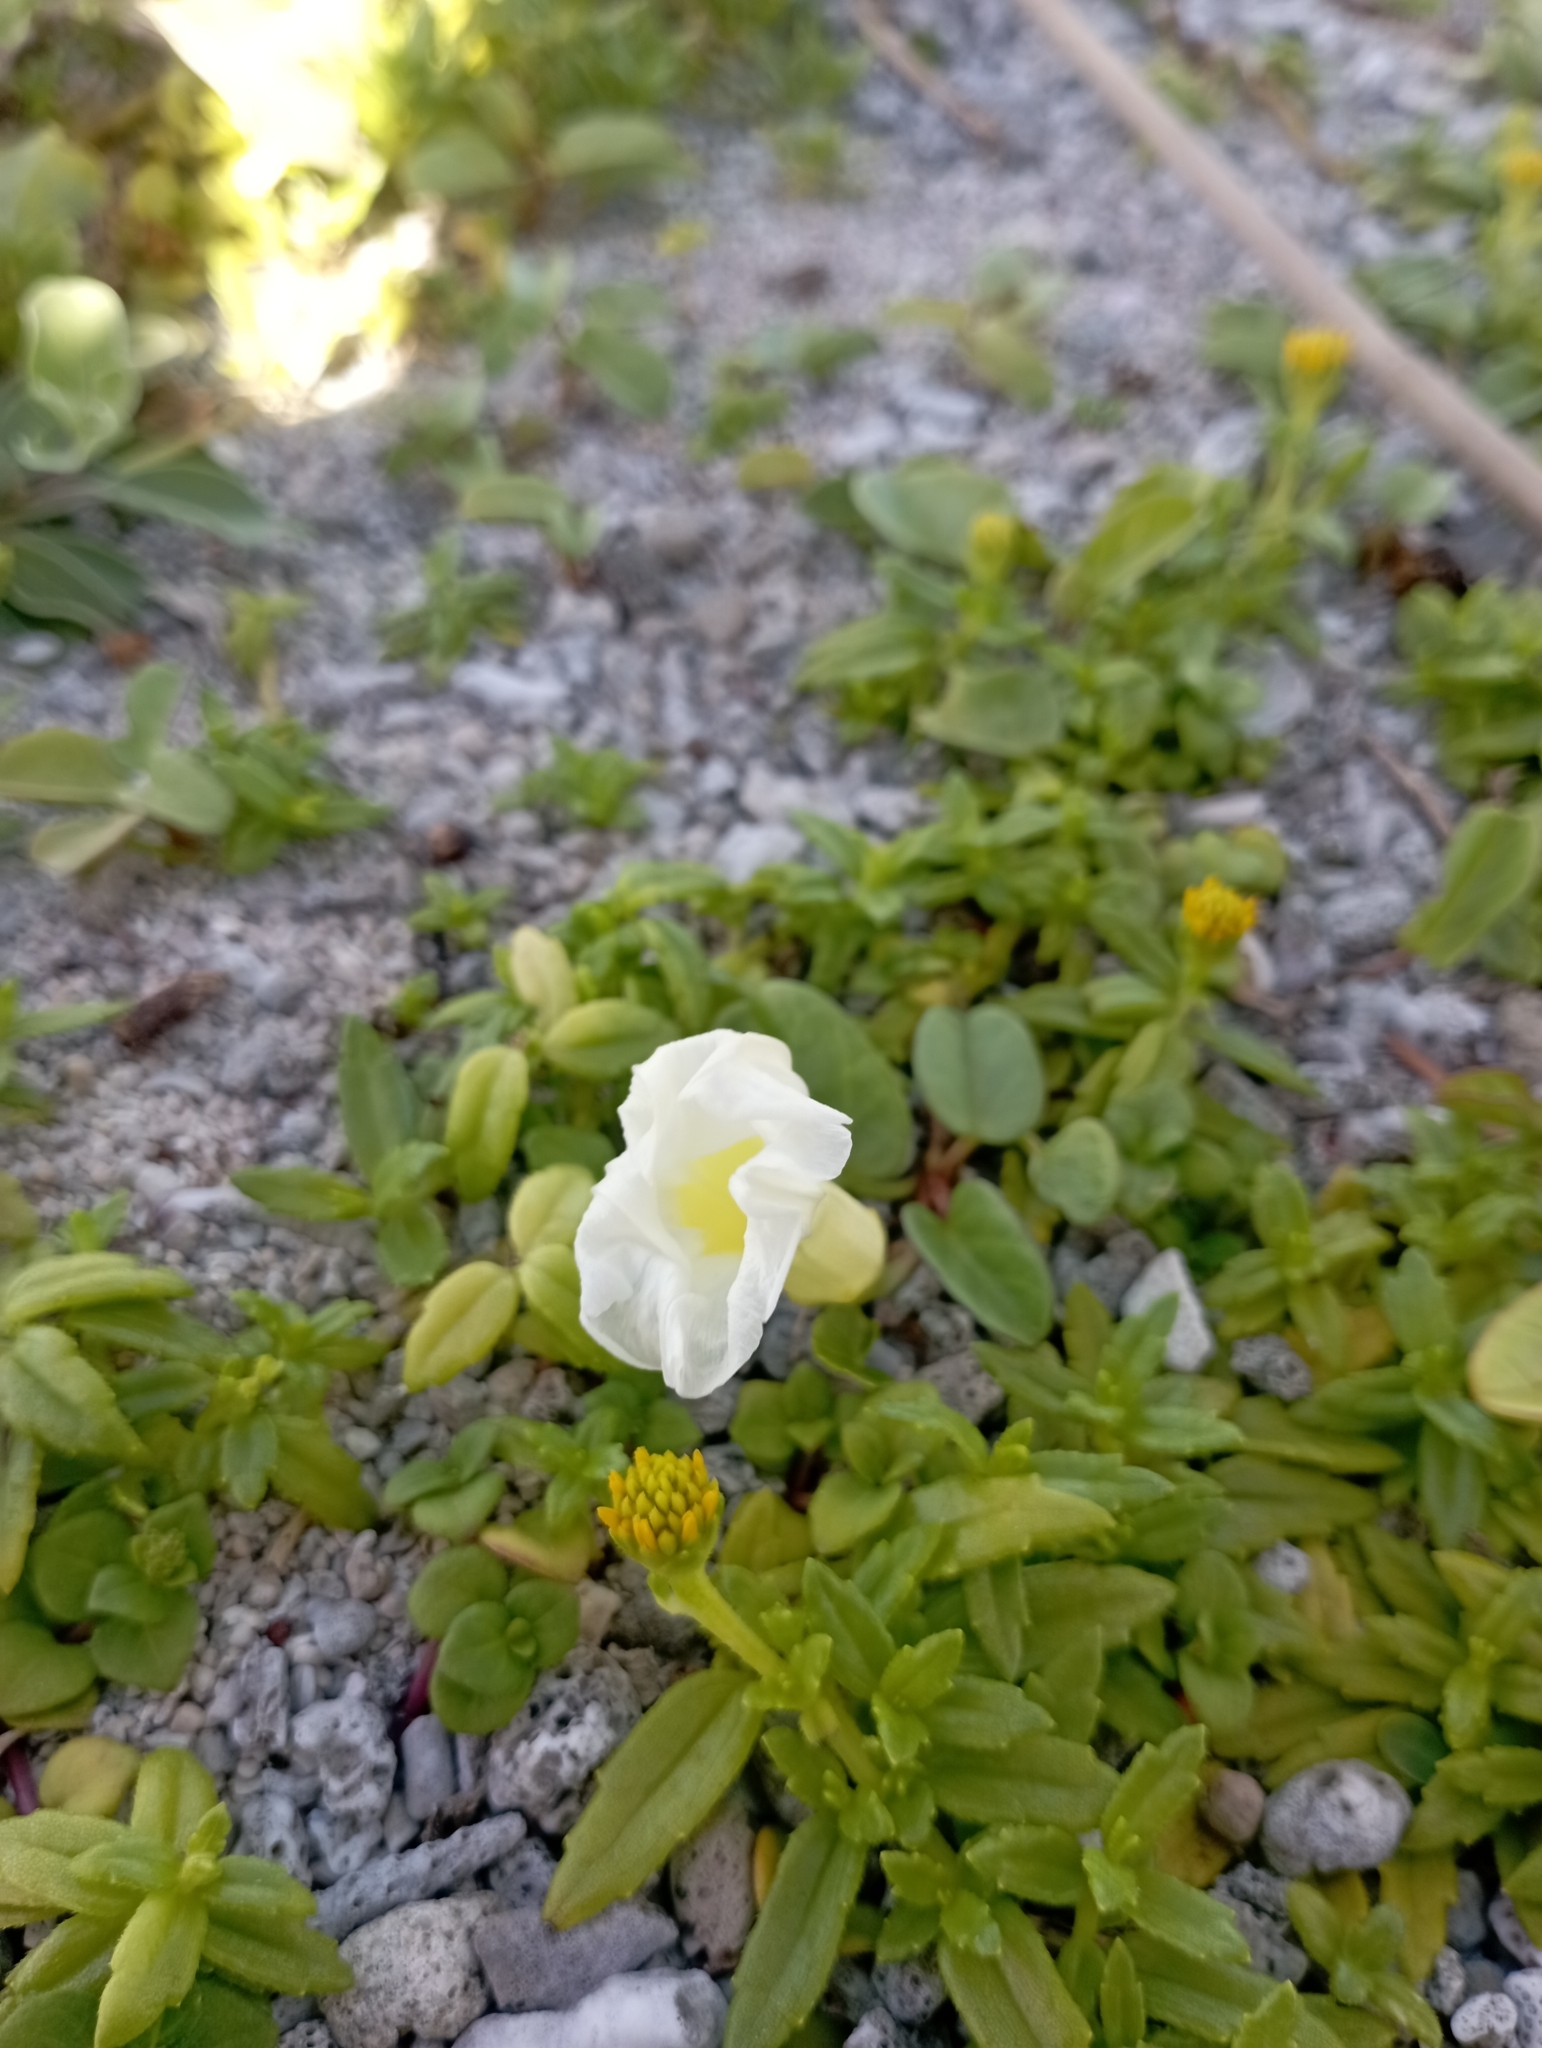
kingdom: Plantae
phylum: Tracheophyta
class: Magnoliopsida
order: Solanales
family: Convolvulaceae
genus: Ipomoea
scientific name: Ipomoea imperati
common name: Fiddle-leaf morning-glory
